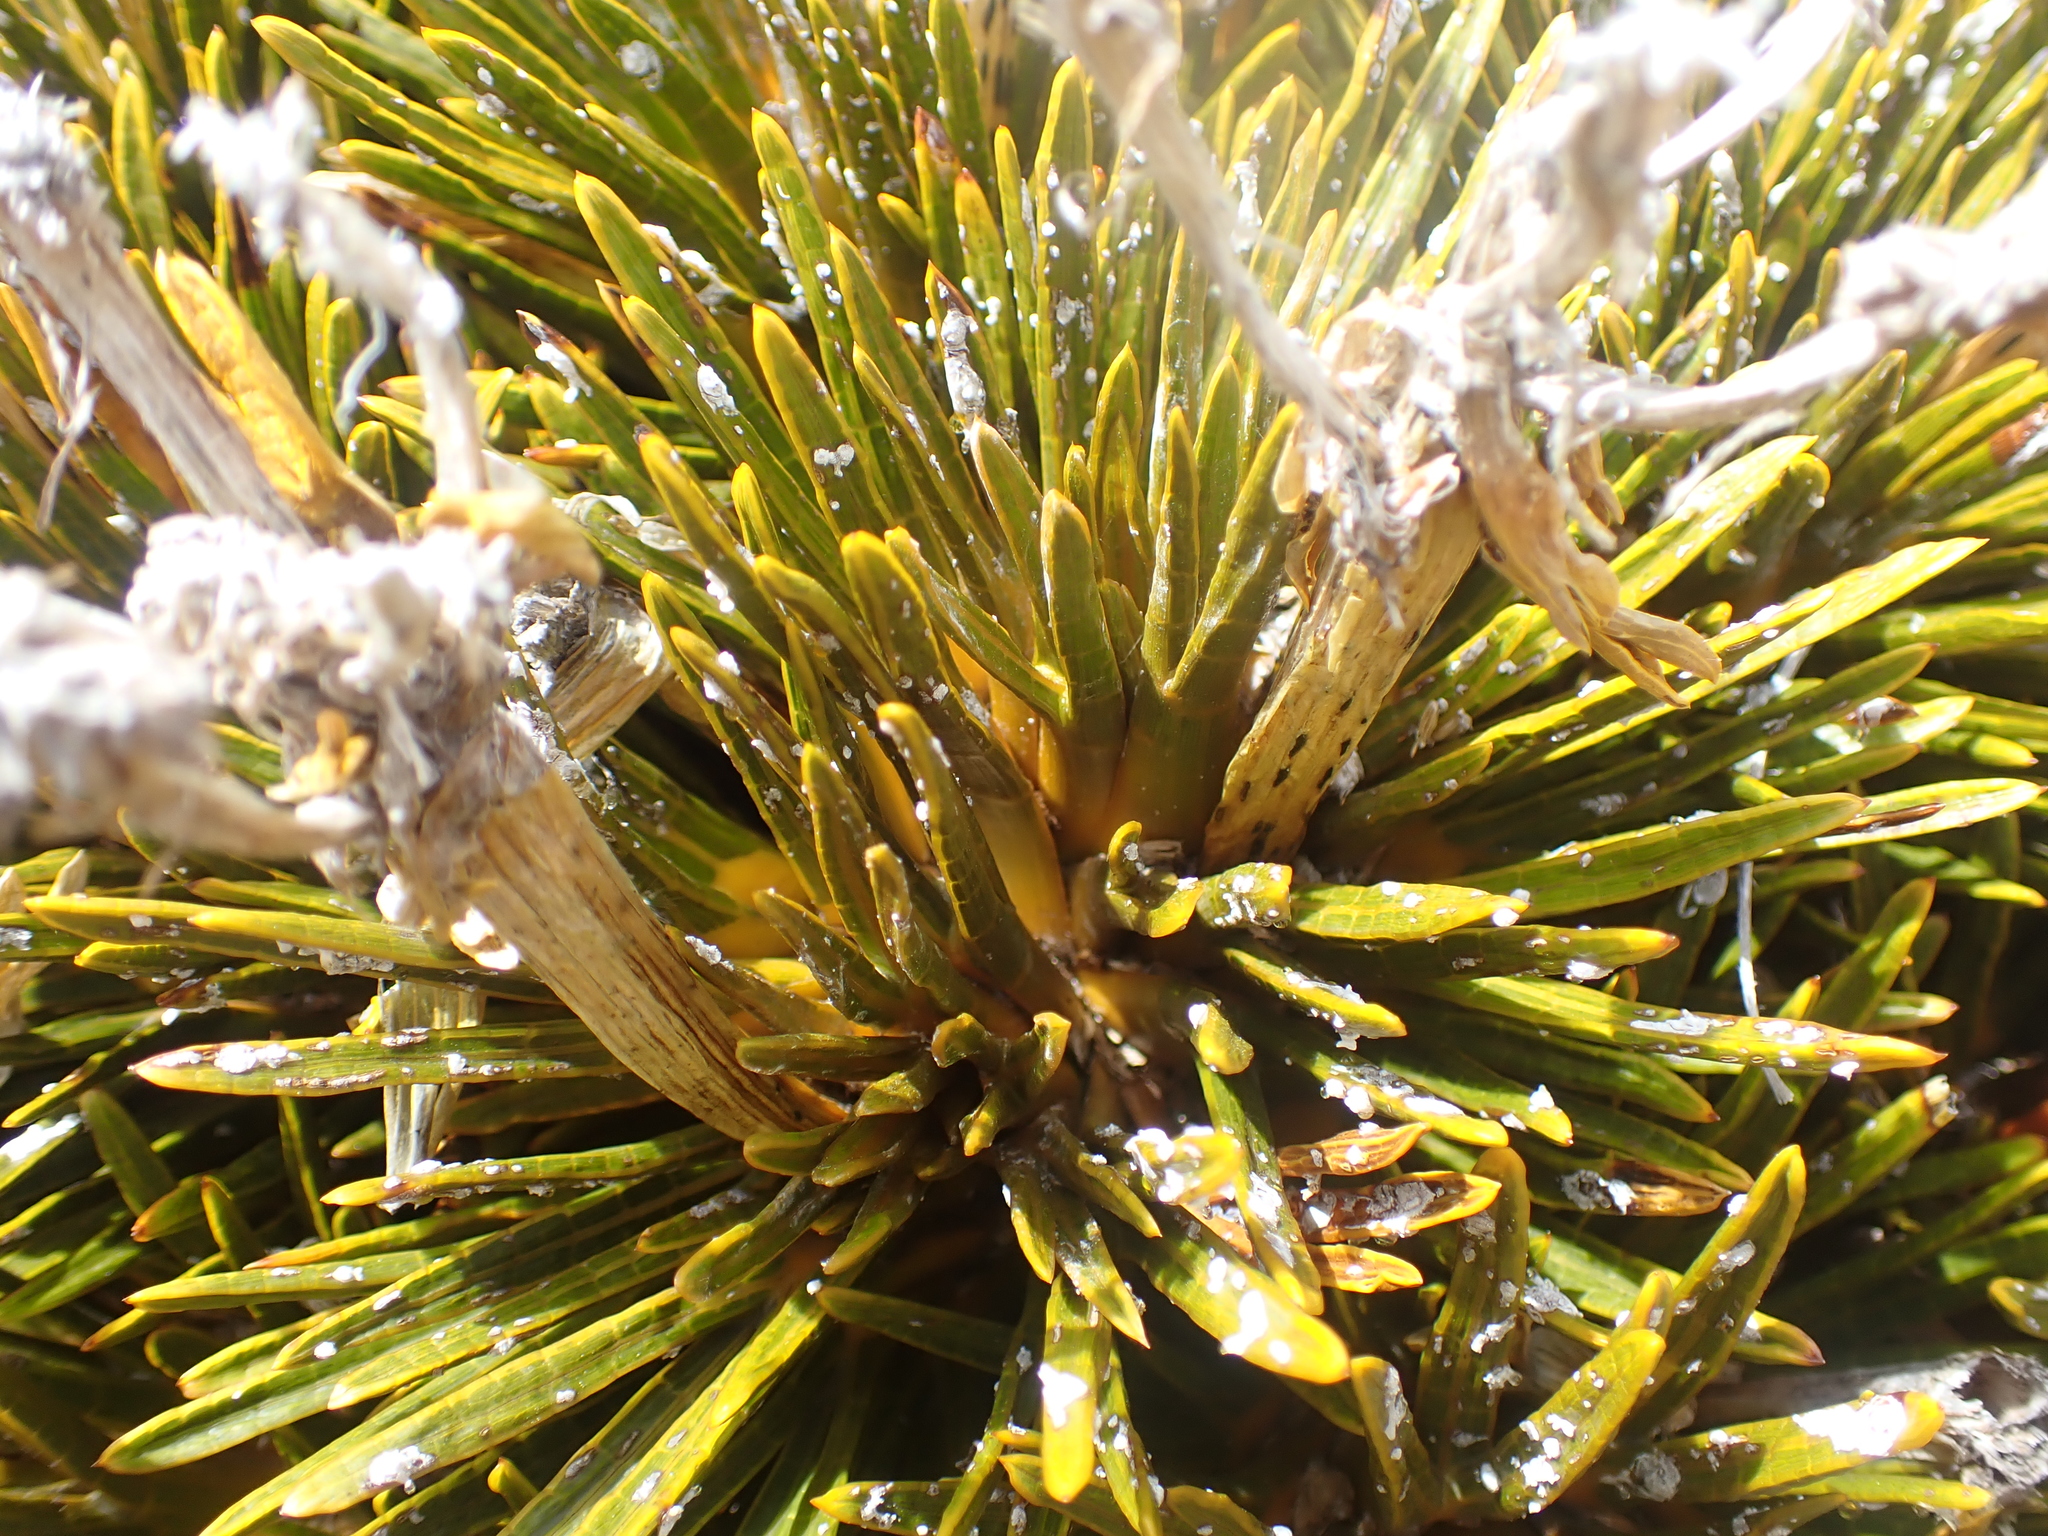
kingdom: Plantae
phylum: Tracheophyta
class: Magnoliopsida
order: Apiales
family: Apiaceae
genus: Aciphylla
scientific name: Aciphylla dobsonii
